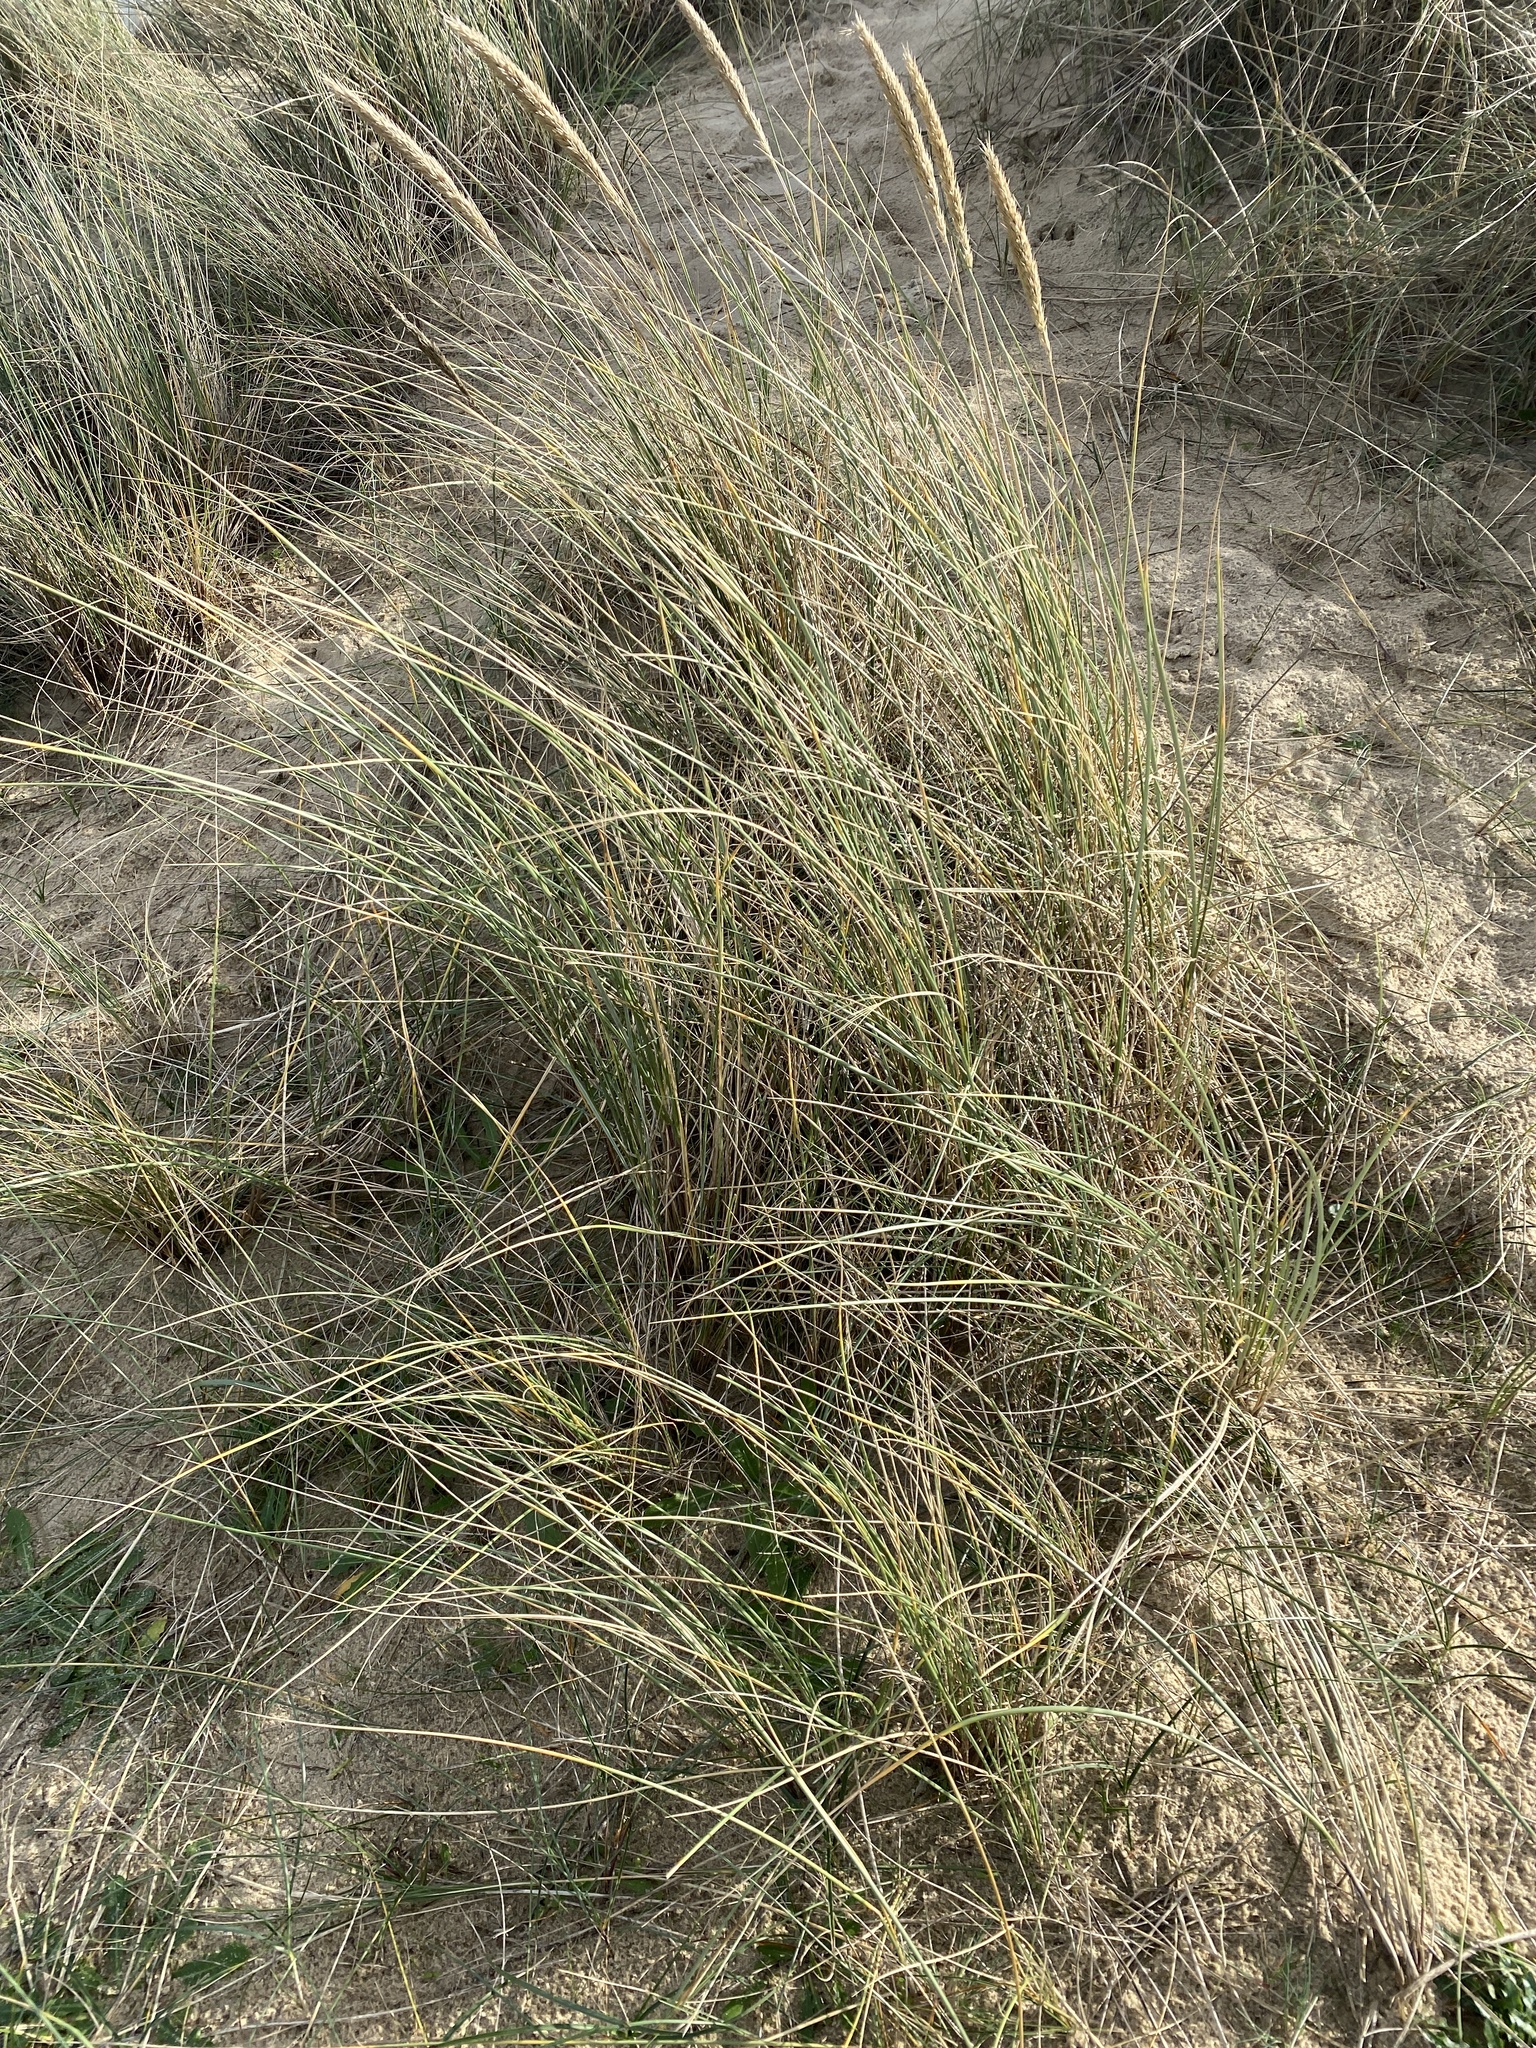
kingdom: Plantae
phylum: Tracheophyta
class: Liliopsida
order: Poales
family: Poaceae
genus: Calamagrostis
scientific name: Calamagrostis arenaria
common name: European beachgrass
